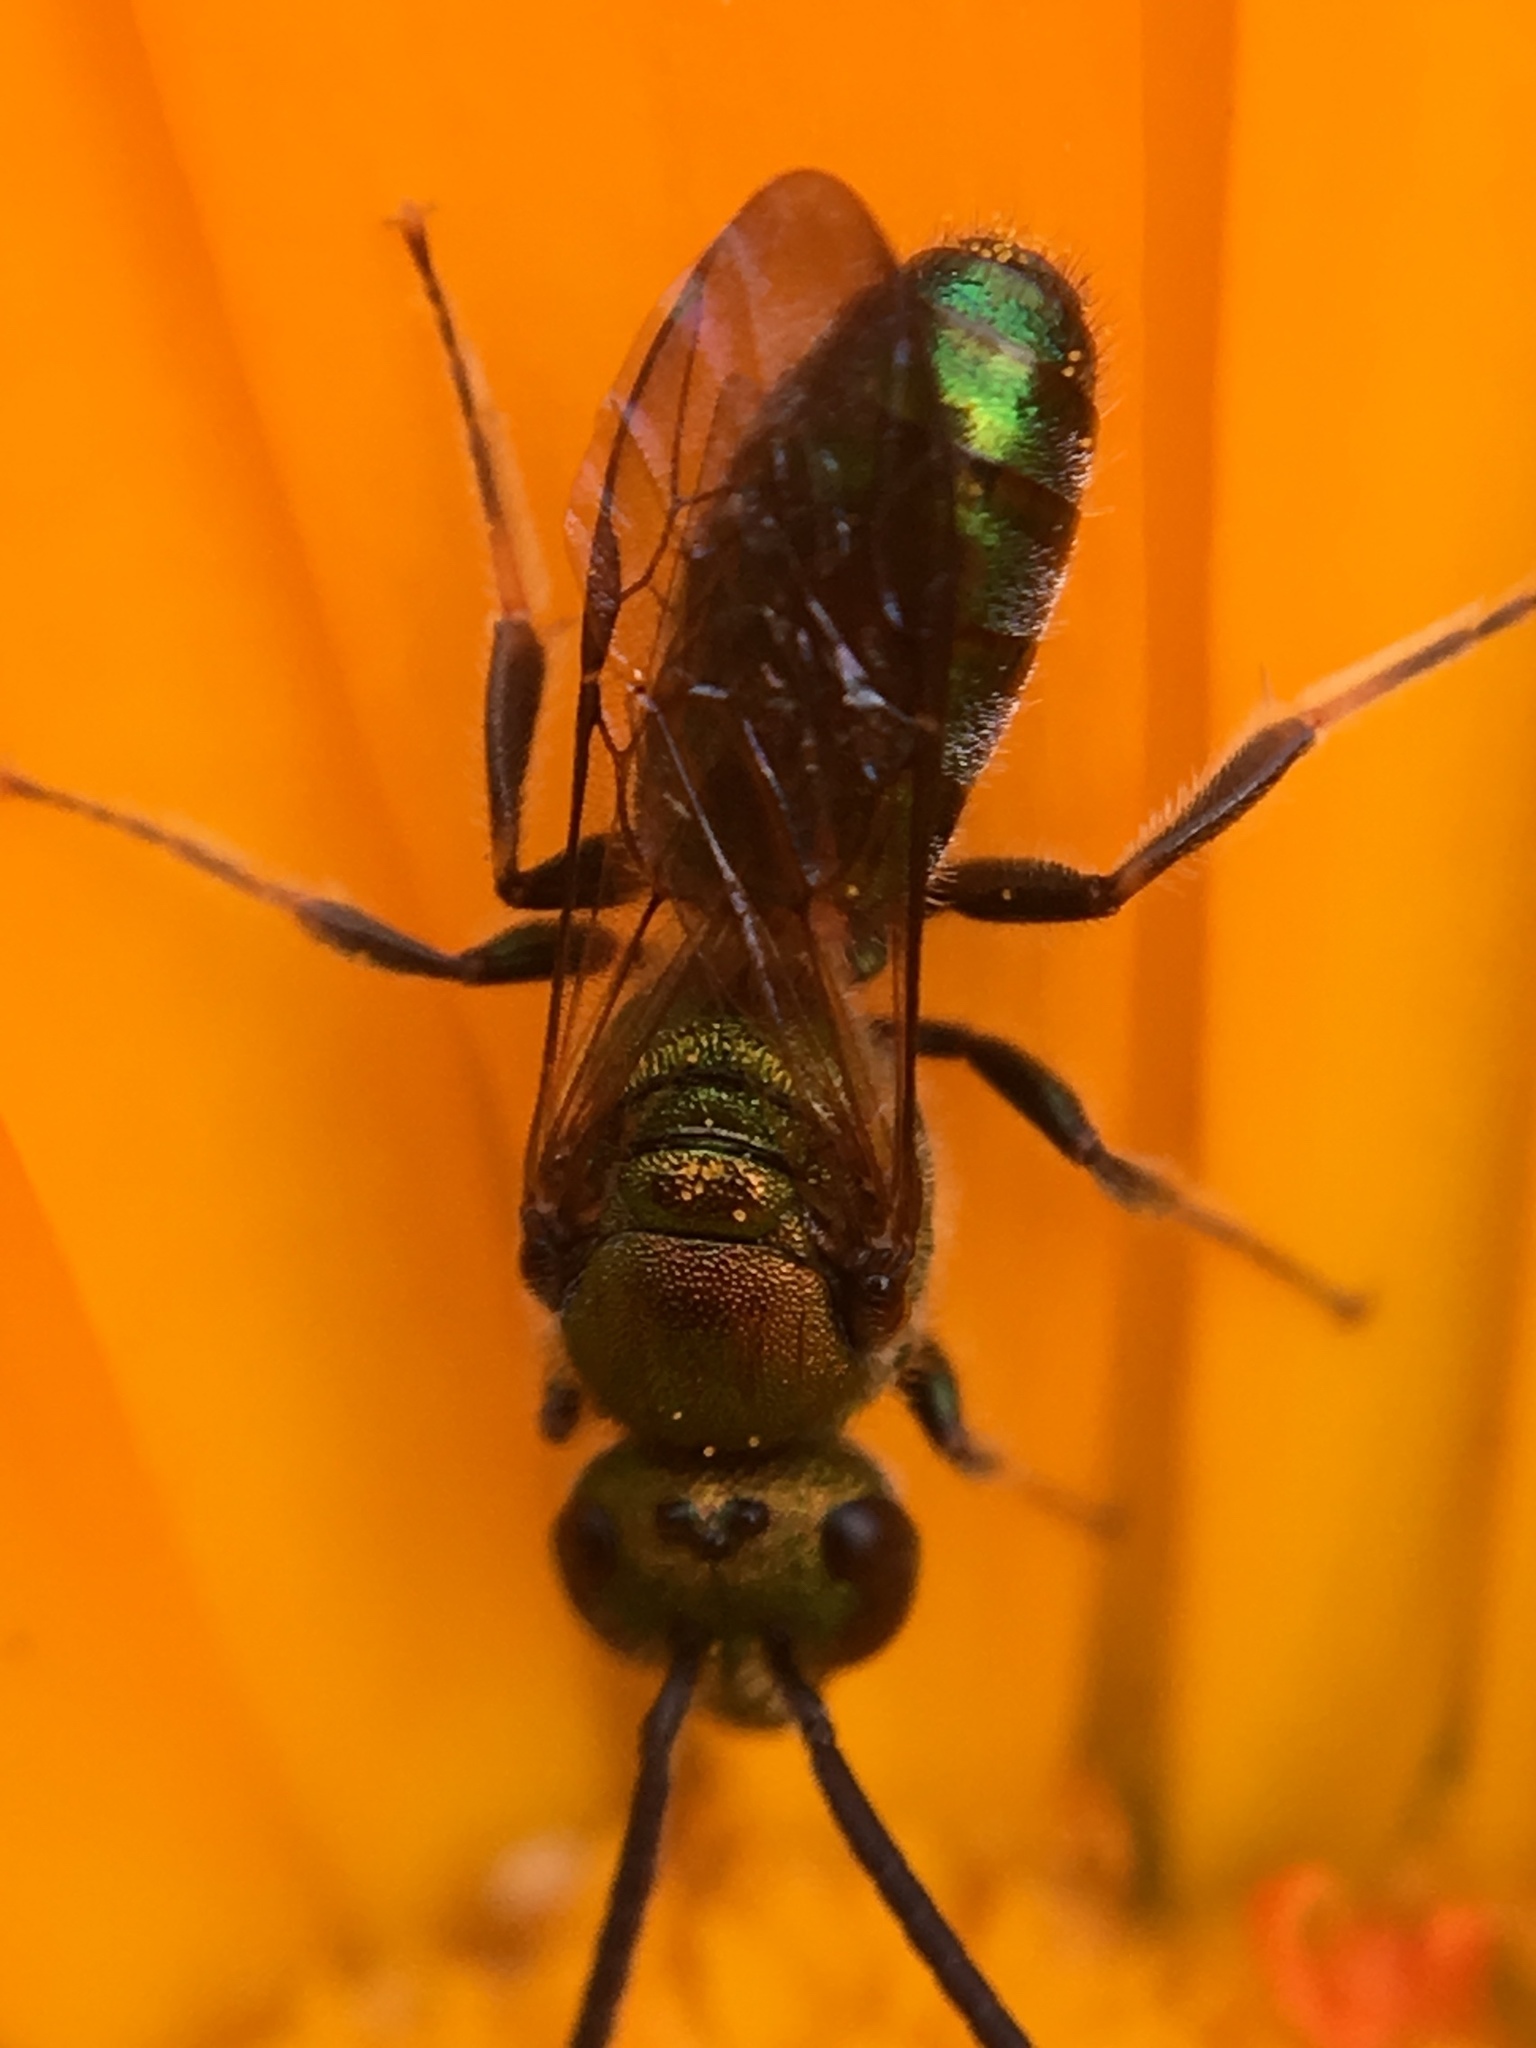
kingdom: Animalia
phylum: Arthropoda
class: Insecta
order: Hymenoptera
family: Halictidae
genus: Augochlora
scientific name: Augochlora pura
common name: Pure green sweat bee
